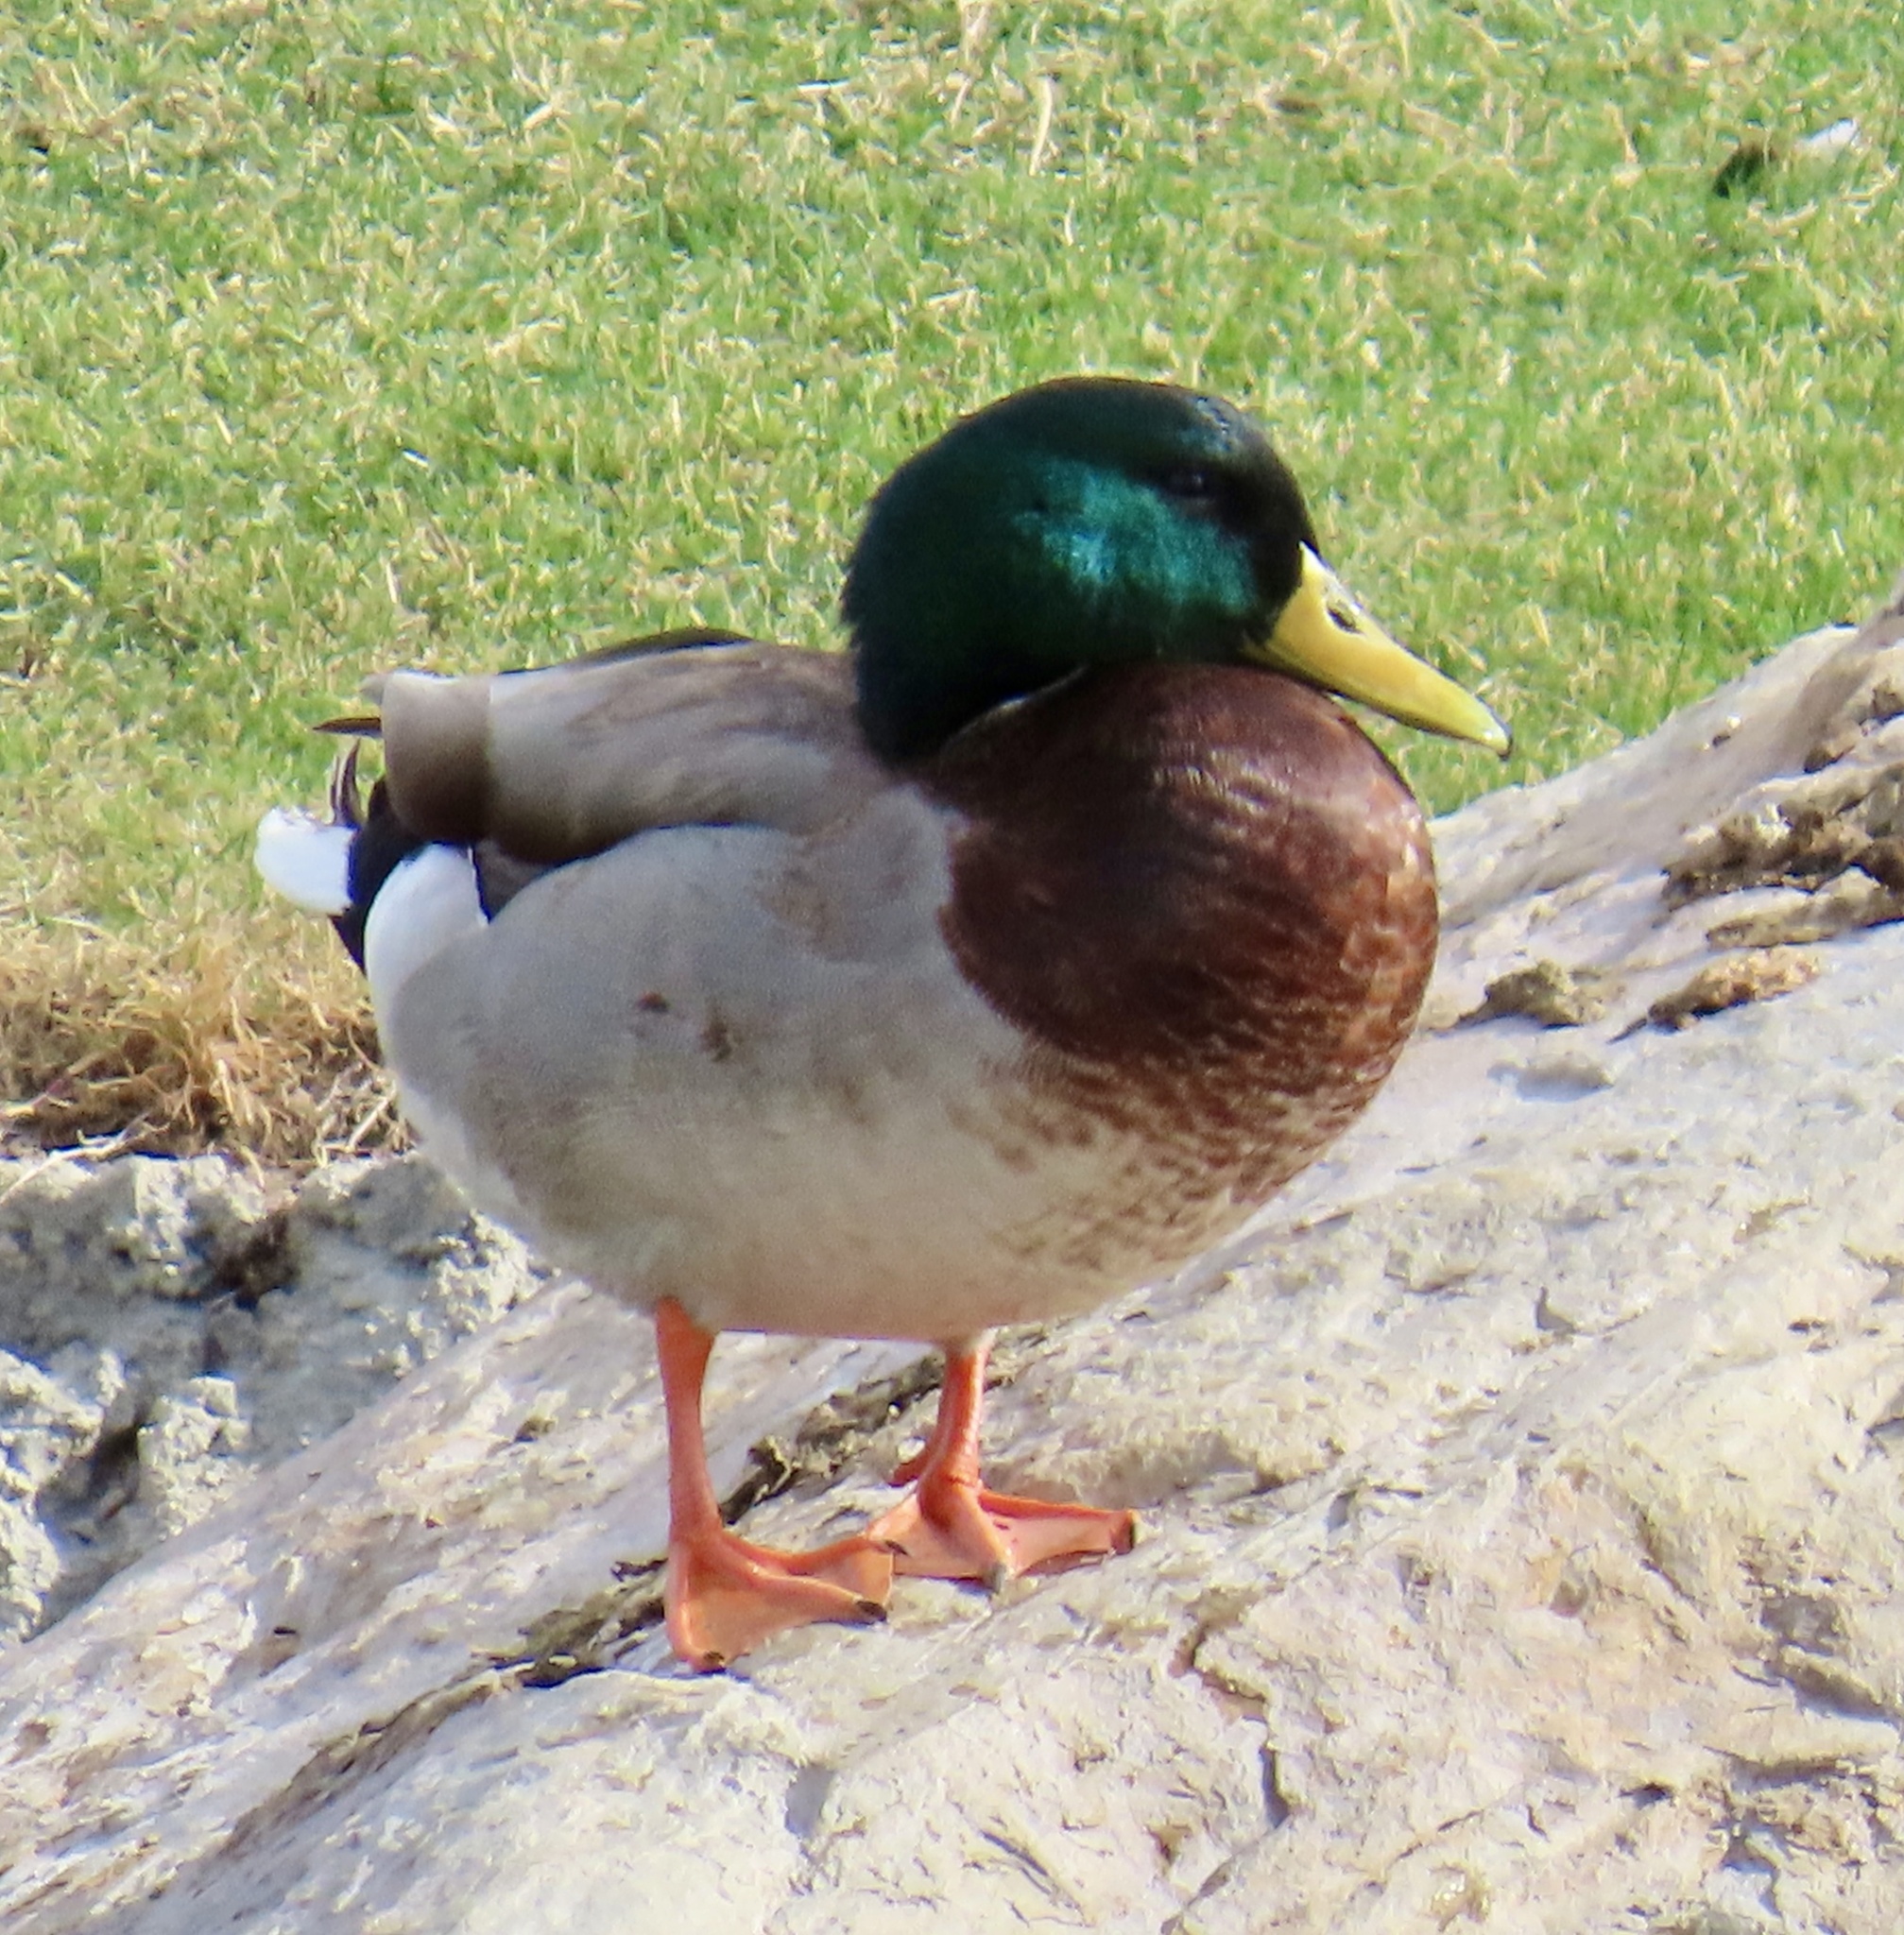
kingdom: Animalia
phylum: Chordata
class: Aves
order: Anseriformes
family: Anatidae
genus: Anas
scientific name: Anas platyrhynchos
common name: Mallard
